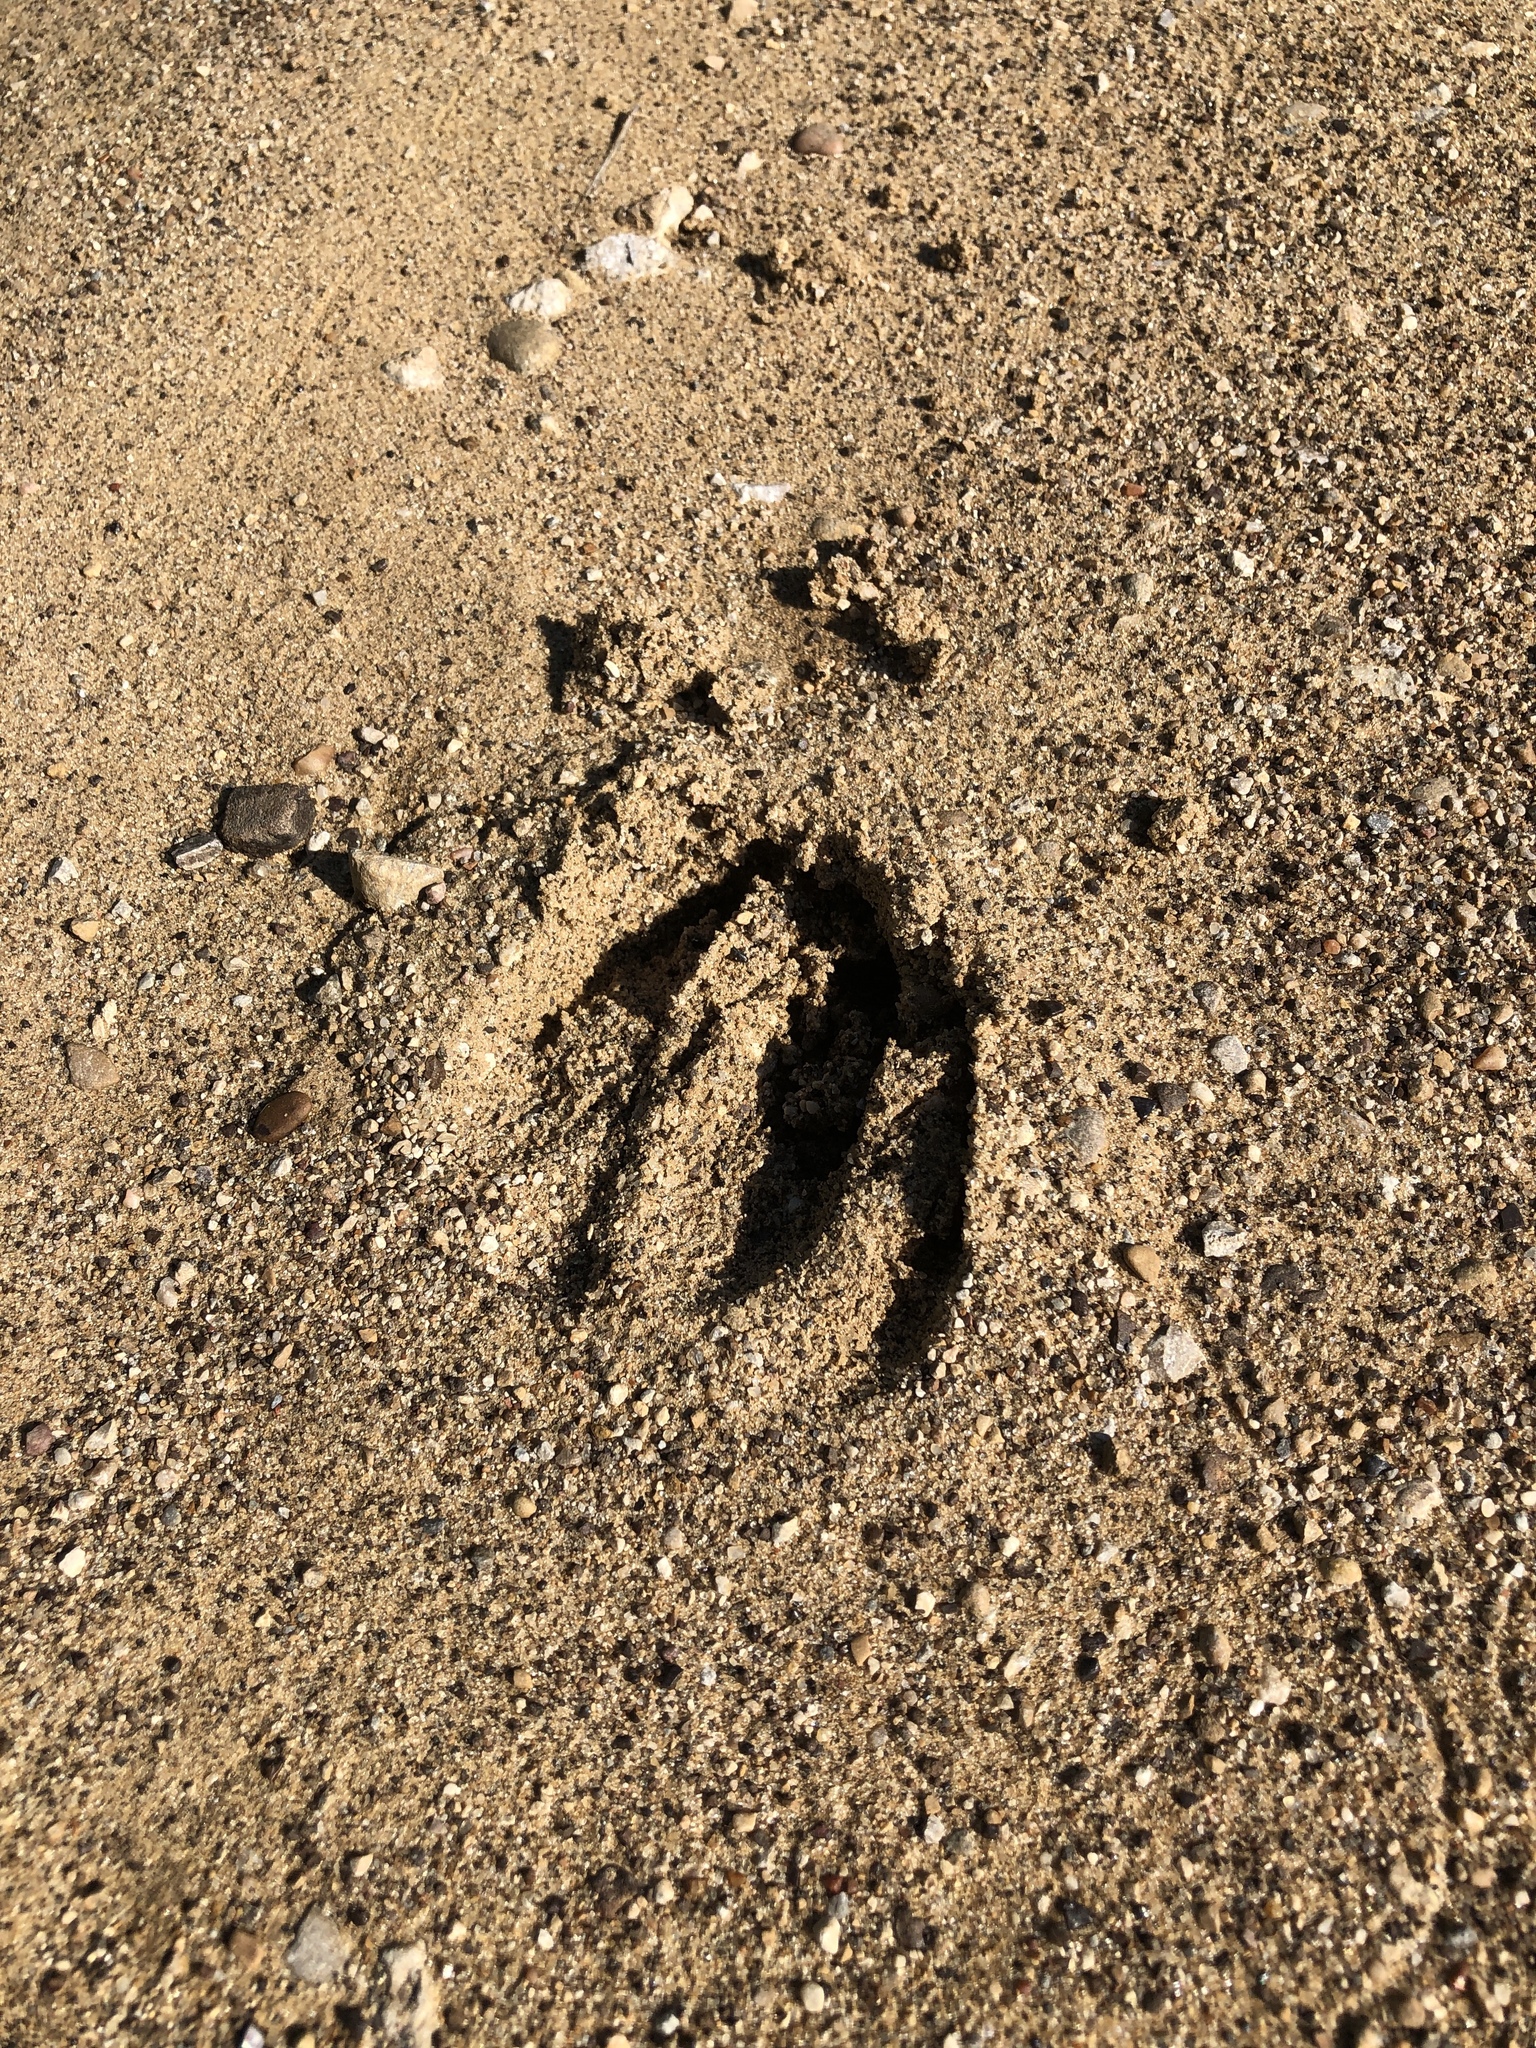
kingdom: Animalia
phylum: Chordata
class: Mammalia
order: Artiodactyla
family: Cervidae
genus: Odocoileus
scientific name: Odocoileus virginianus
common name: White-tailed deer
